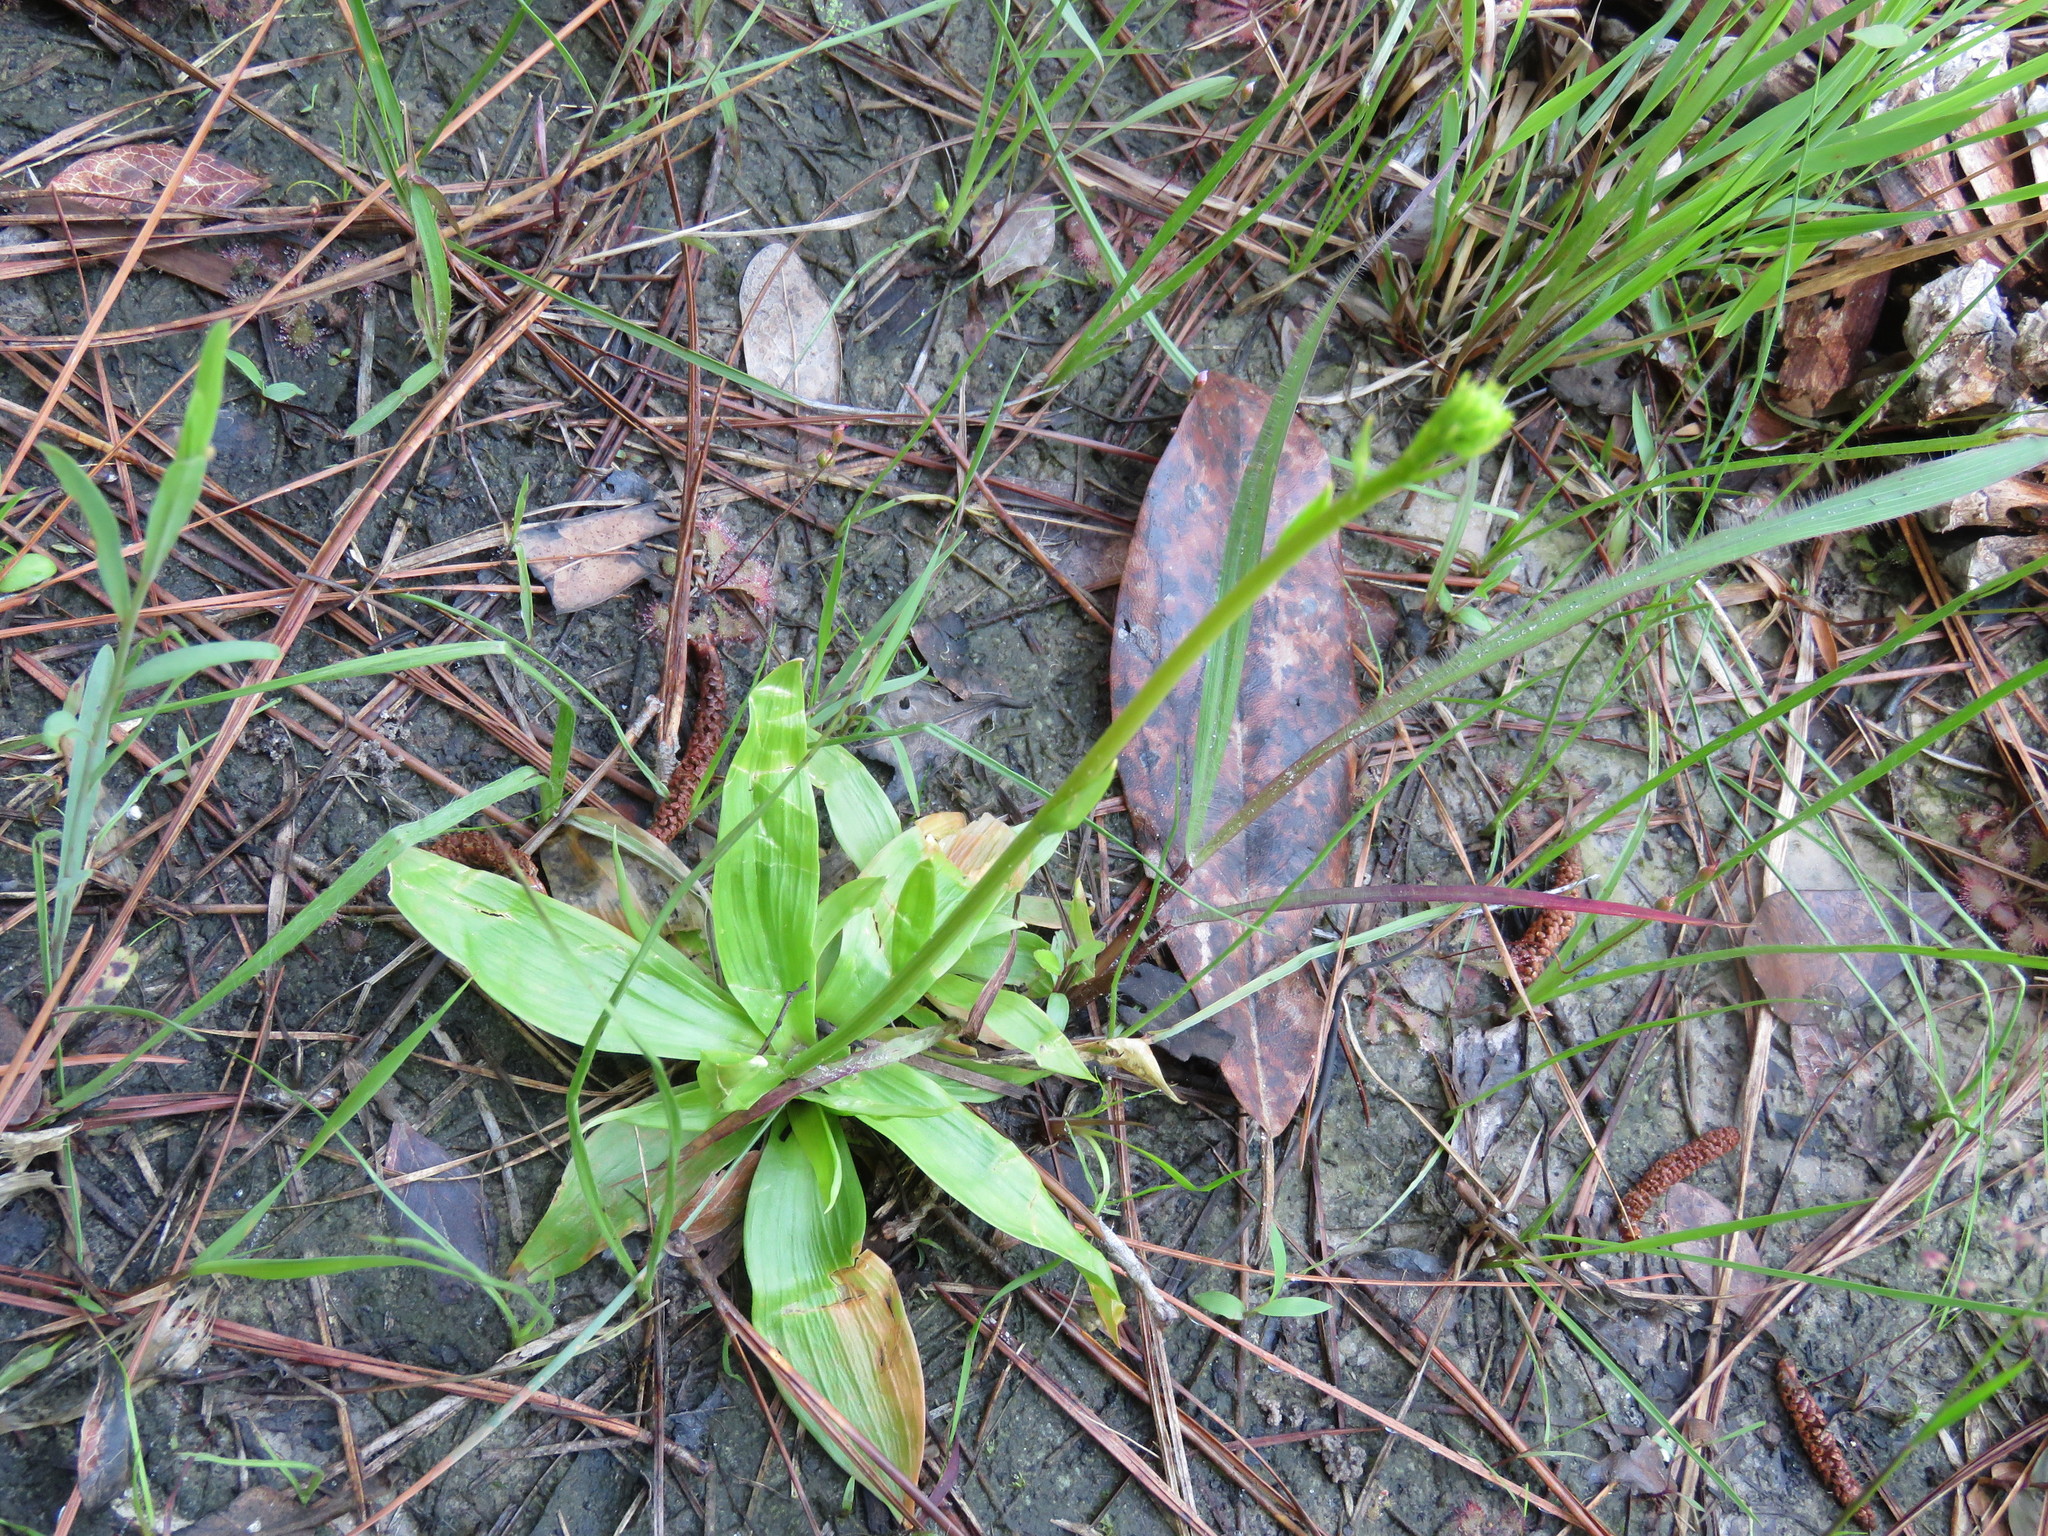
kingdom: Plantae
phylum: Tracheophyta
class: Liliopsida
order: Dioscoreales
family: Nartheciaceae
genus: Aletris
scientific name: Aletris aurea
